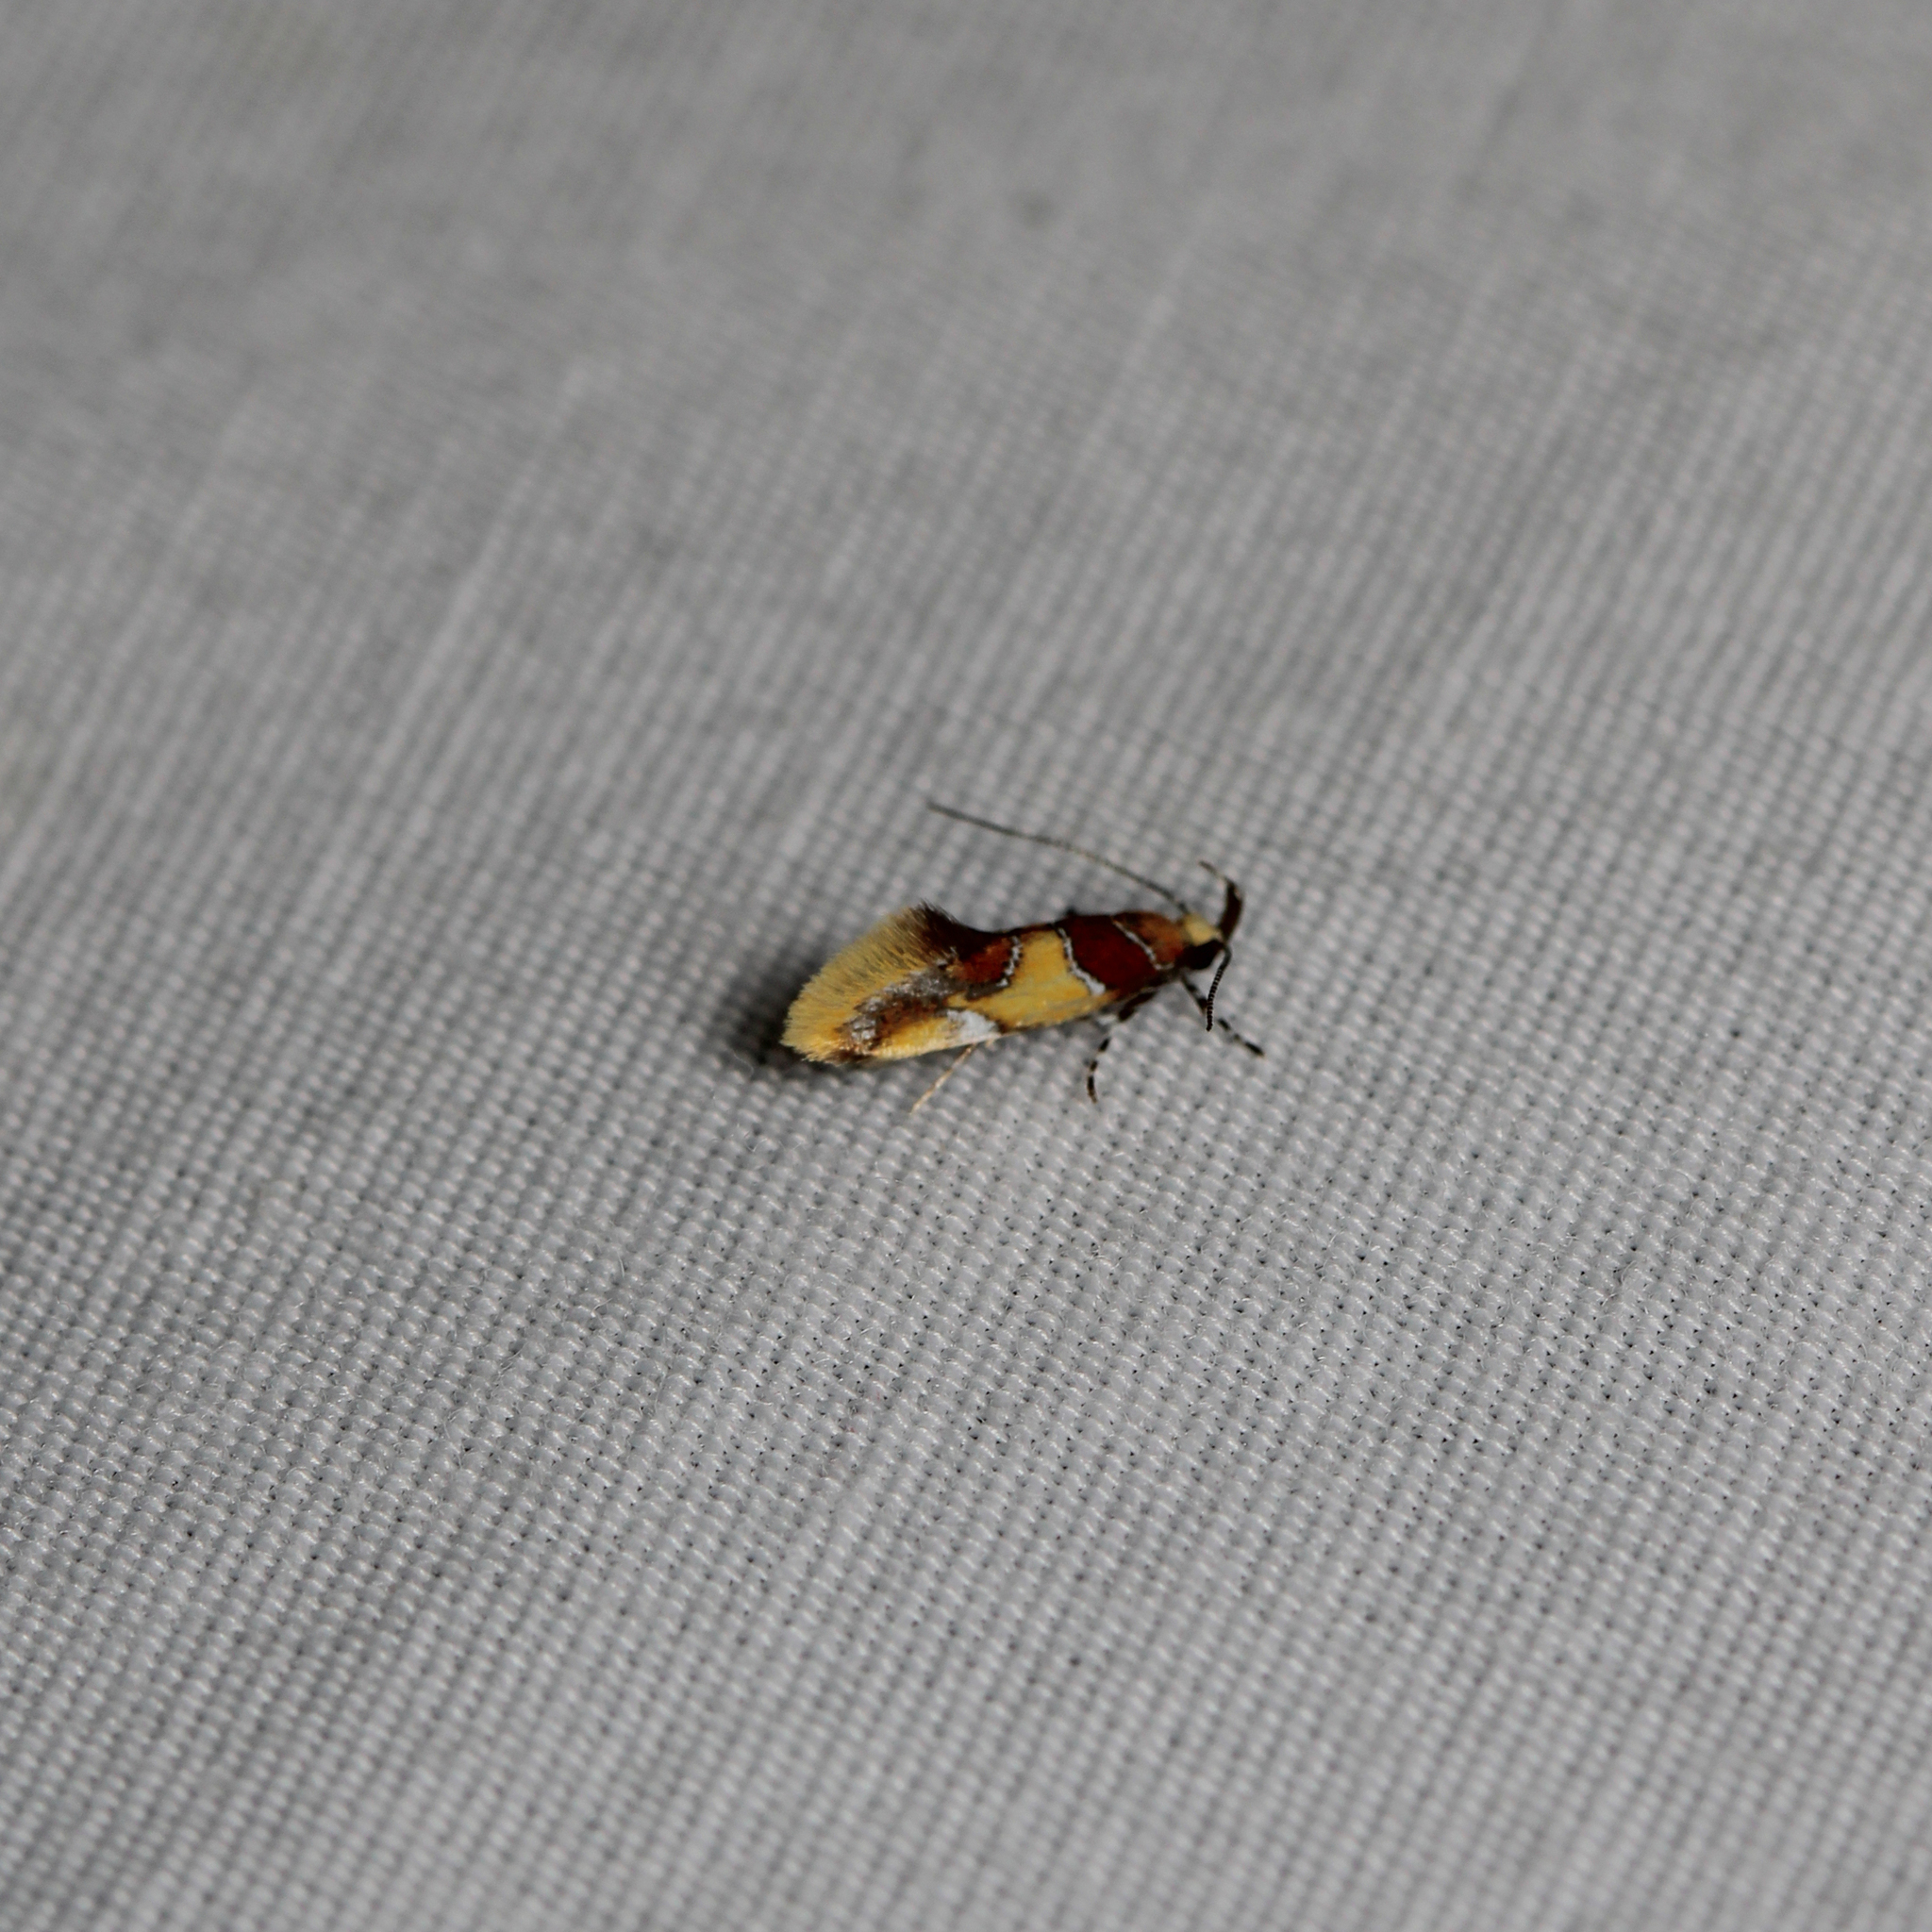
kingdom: Animalia
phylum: Arthropoda
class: Insecta
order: Lepidoptera
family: Oecophoridae
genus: Callima
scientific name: Callima argenticinctella
